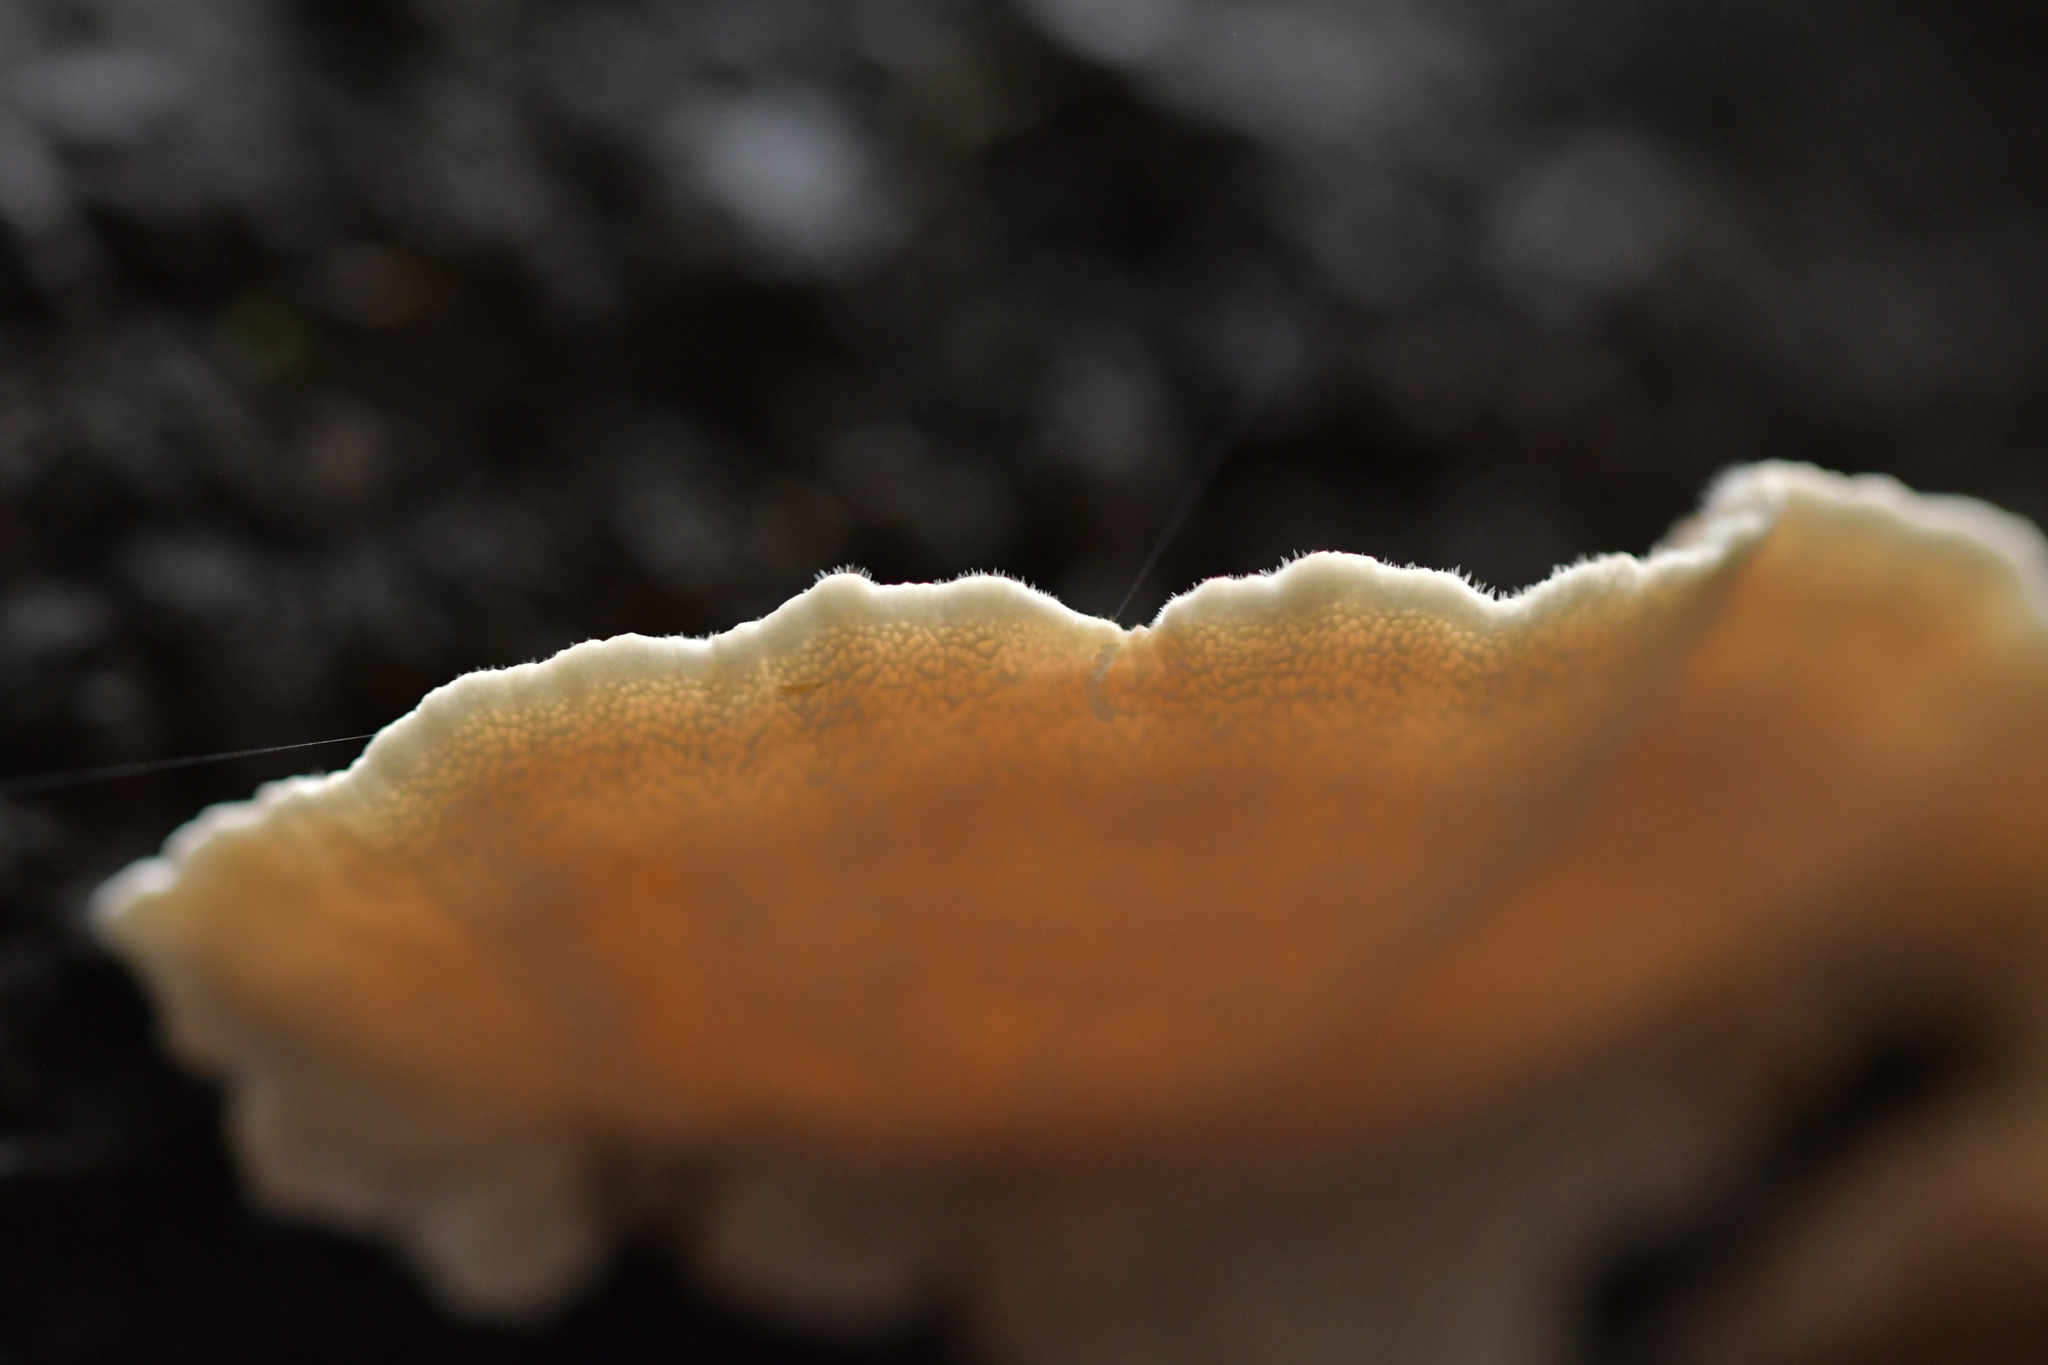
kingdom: Fungi
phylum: Basidiomycota
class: Agaricomycetes
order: Russulales
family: Stereaceae
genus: Stereum
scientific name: Stereum hirsutum
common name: Hairy curtain crust
